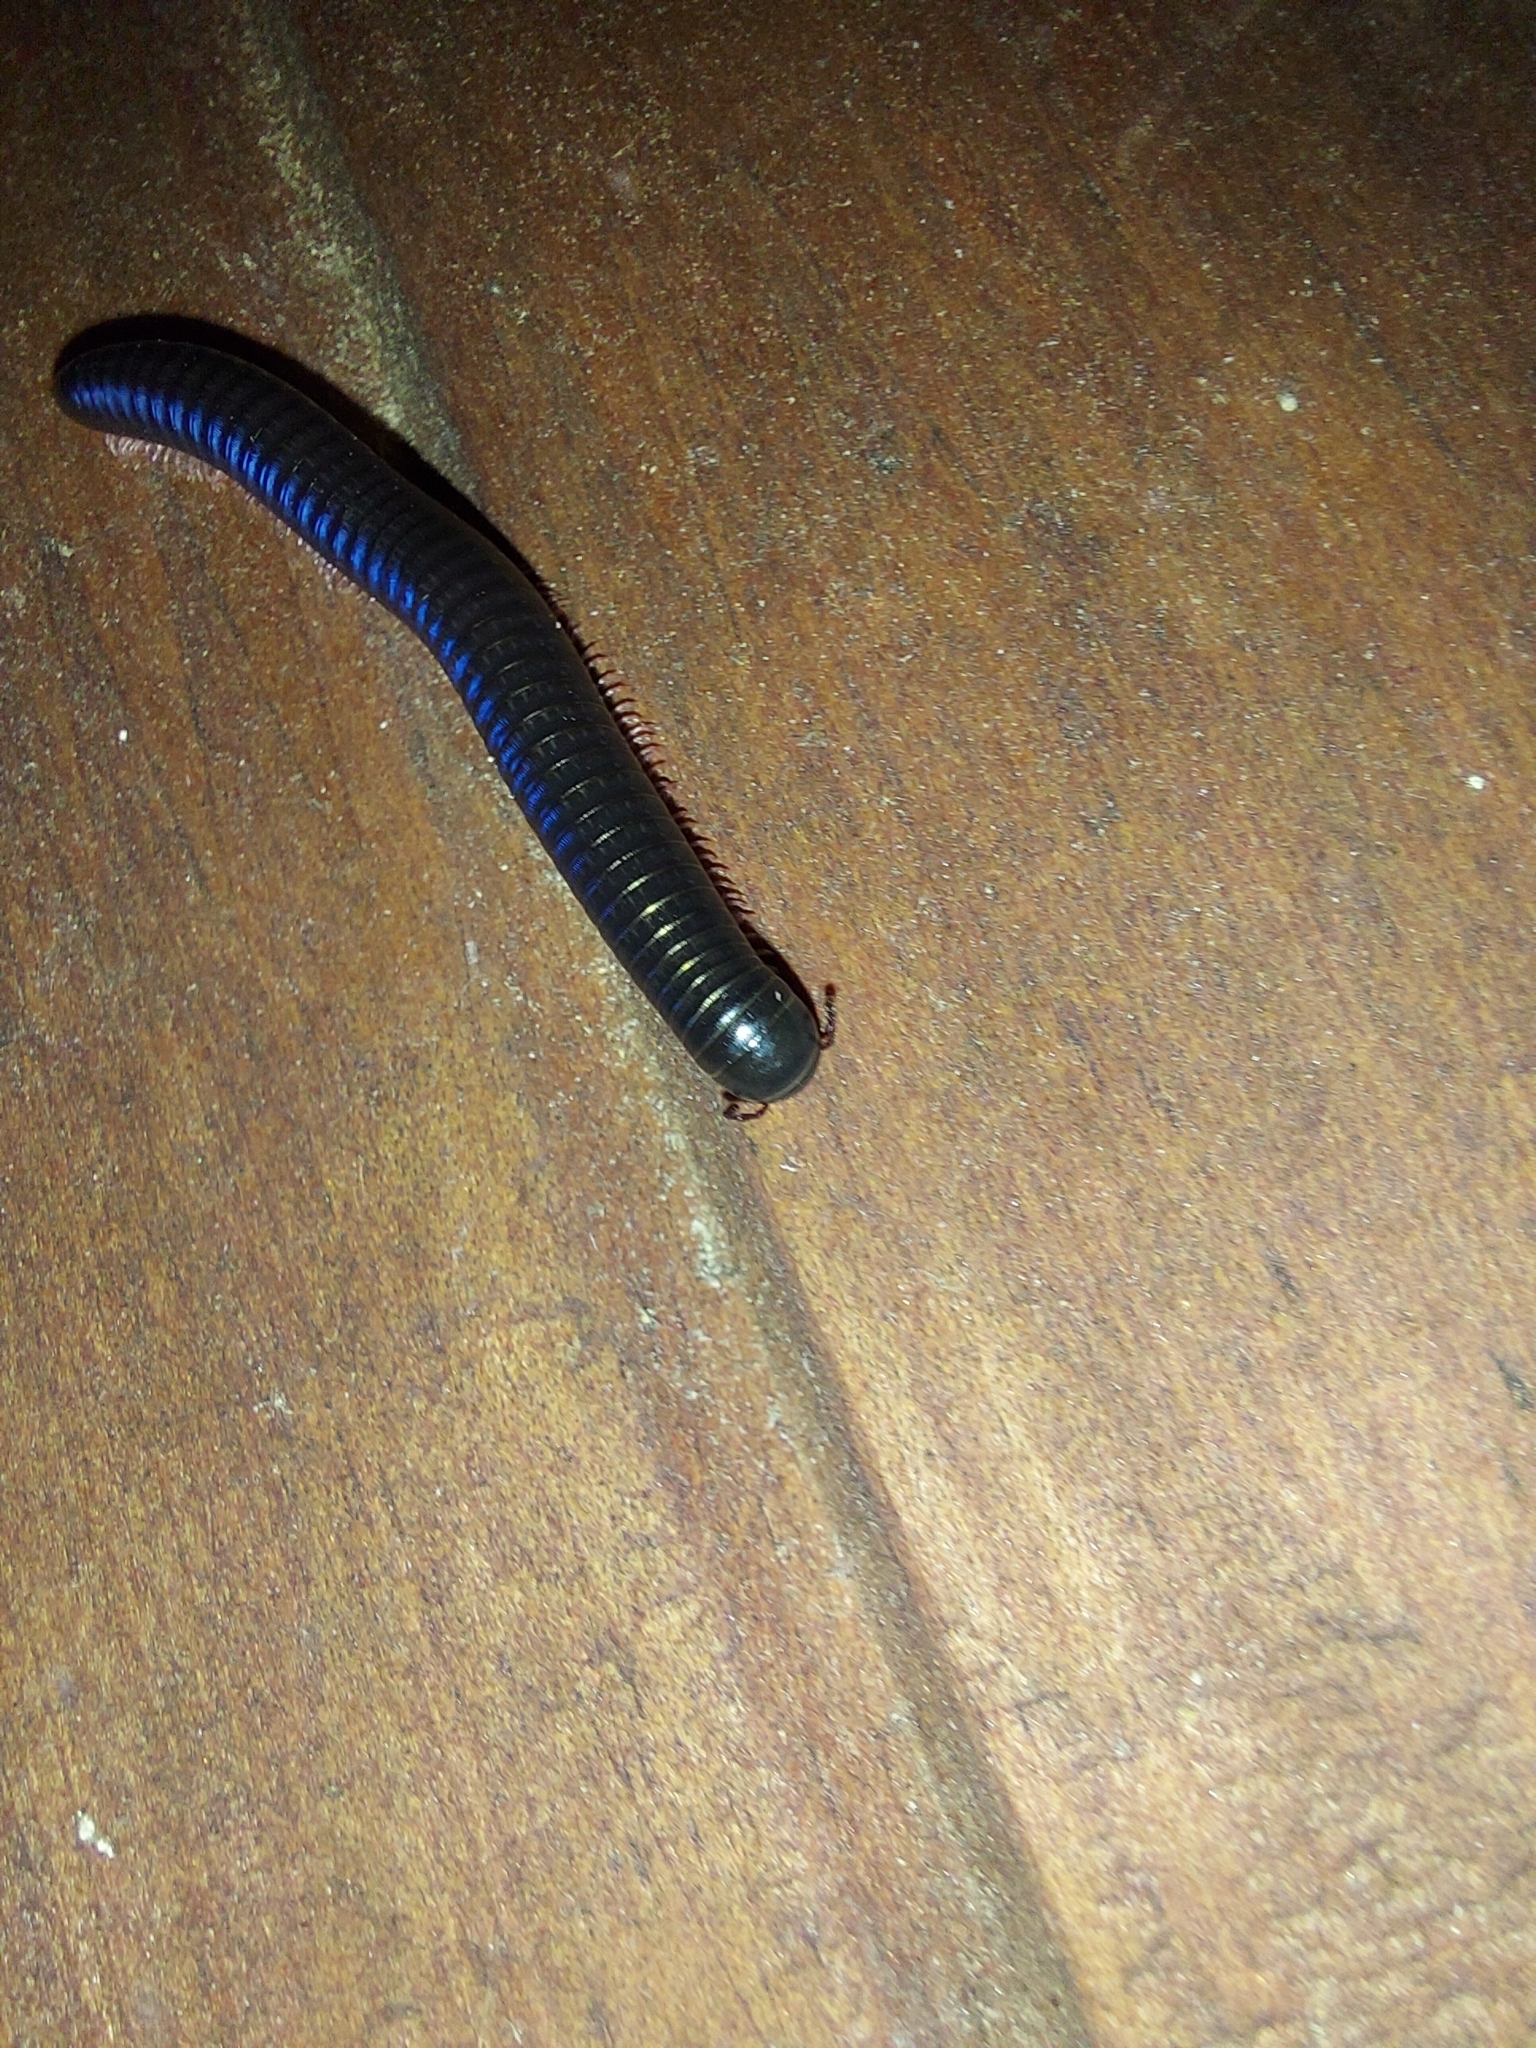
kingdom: Animalia
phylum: Arthropoda
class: Diplopoda
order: Julida
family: Julidae
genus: Ommatoiulus
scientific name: Ommatoiulus moreleti
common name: Portuguese millipede
